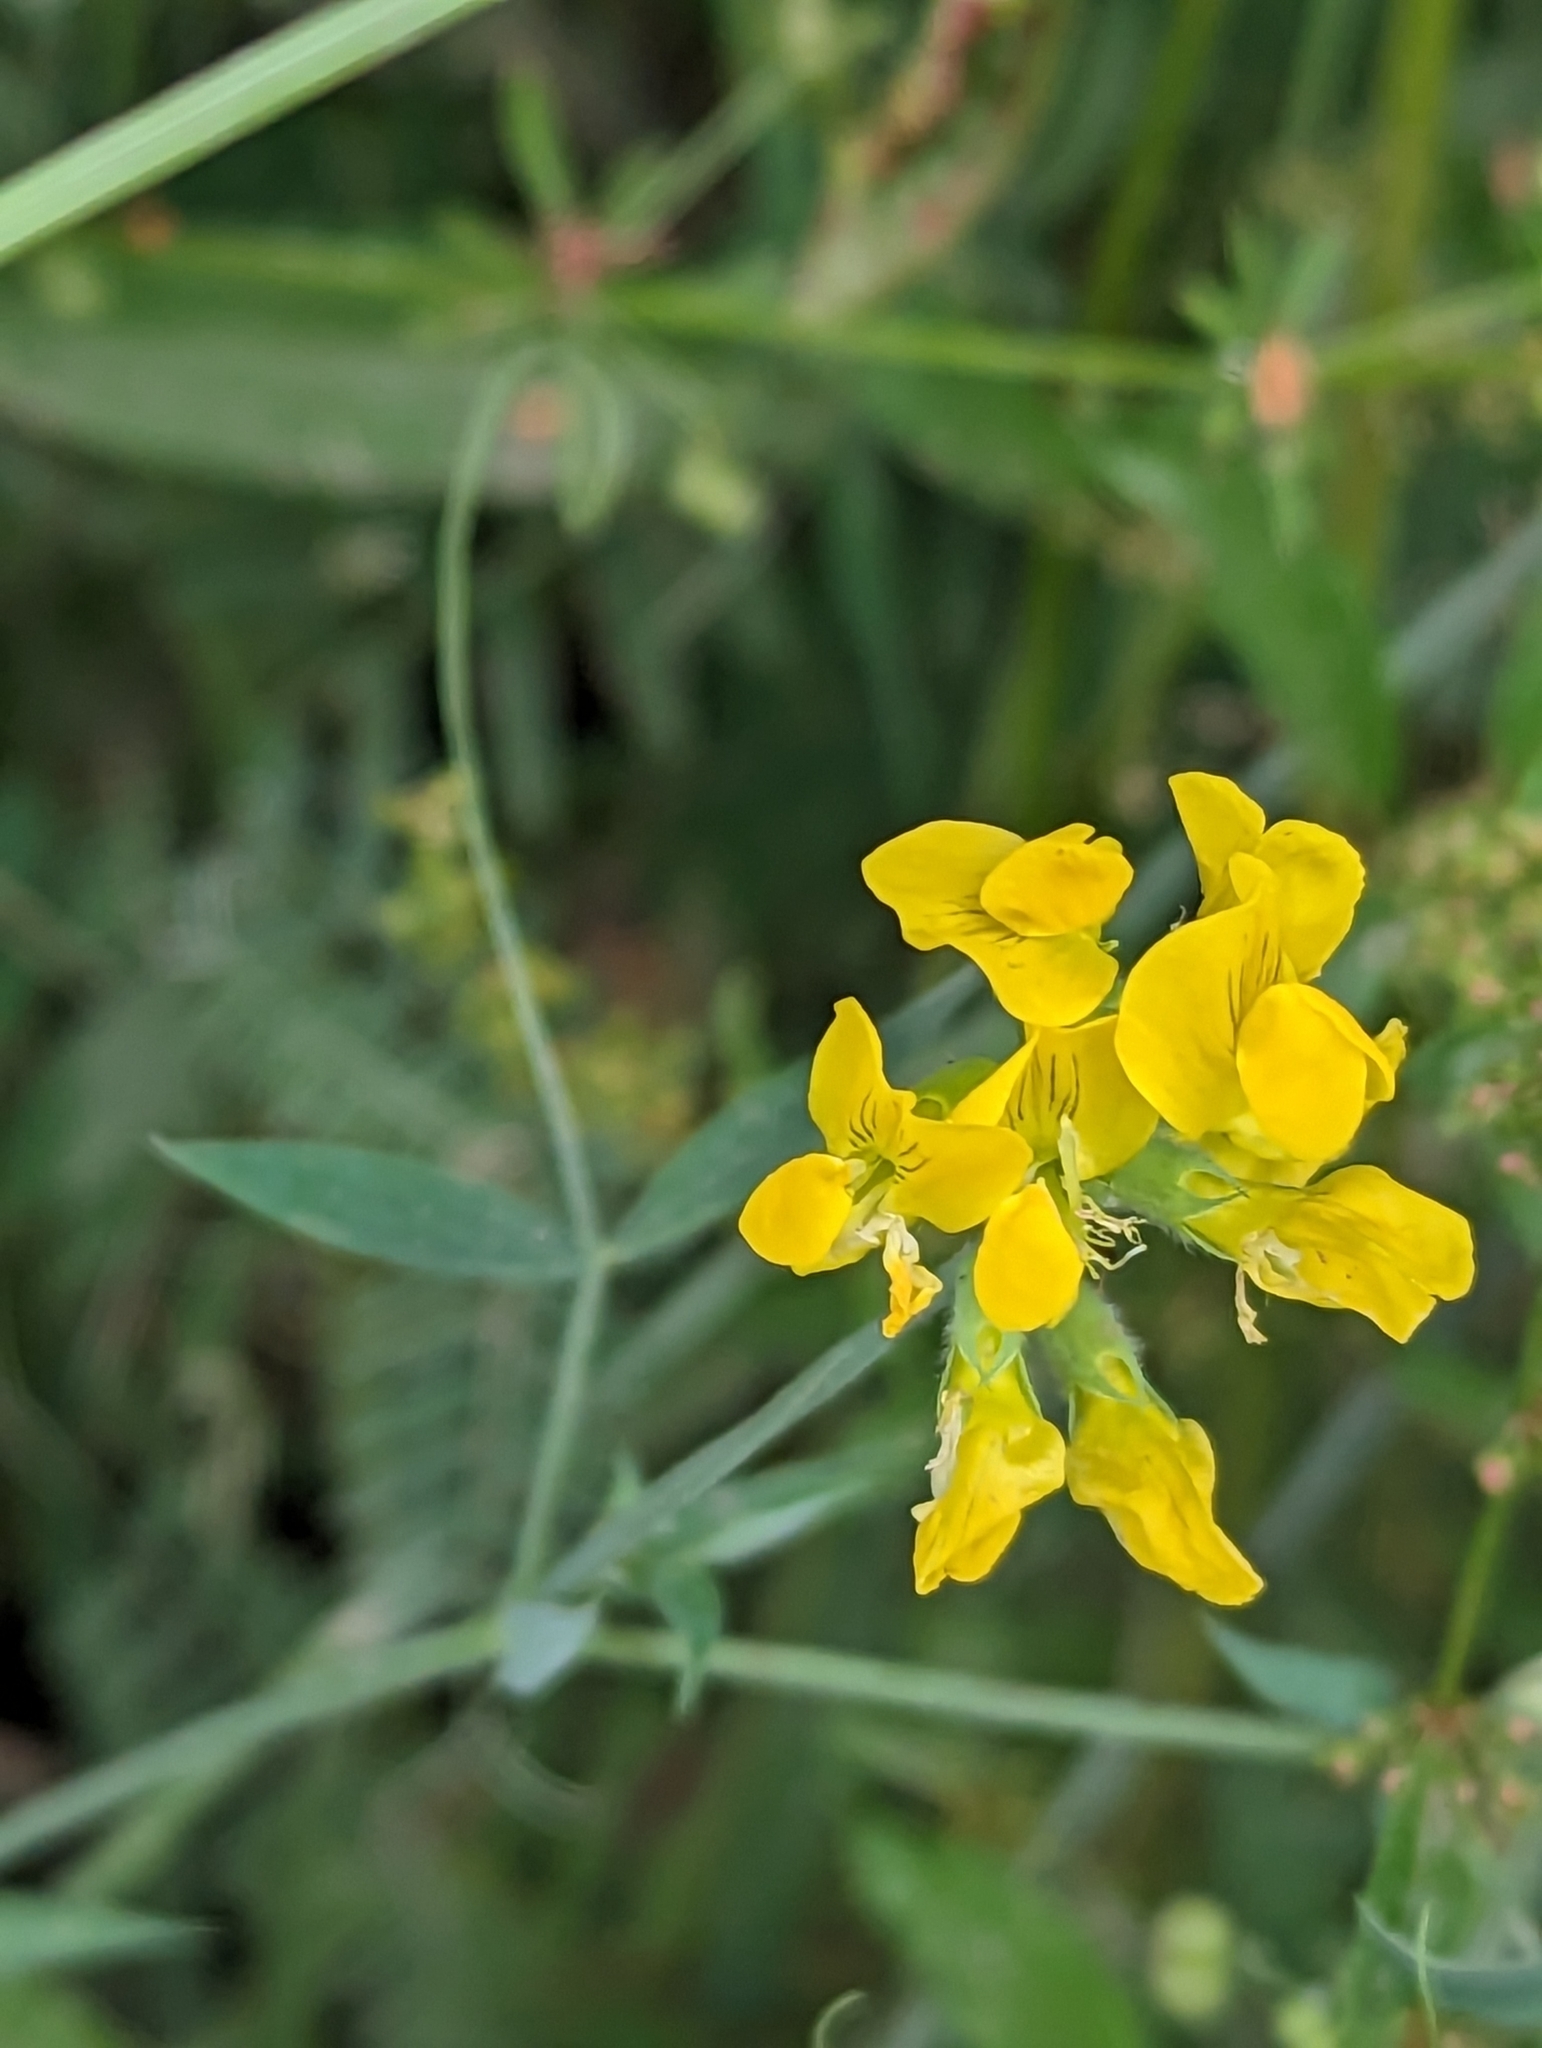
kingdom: Plantae
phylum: Tracheophyta
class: Magnoliopsida
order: Fabales
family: Fabaceae
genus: Lathyrus
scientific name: Lathyrus pratensis
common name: Meadow vetchling
